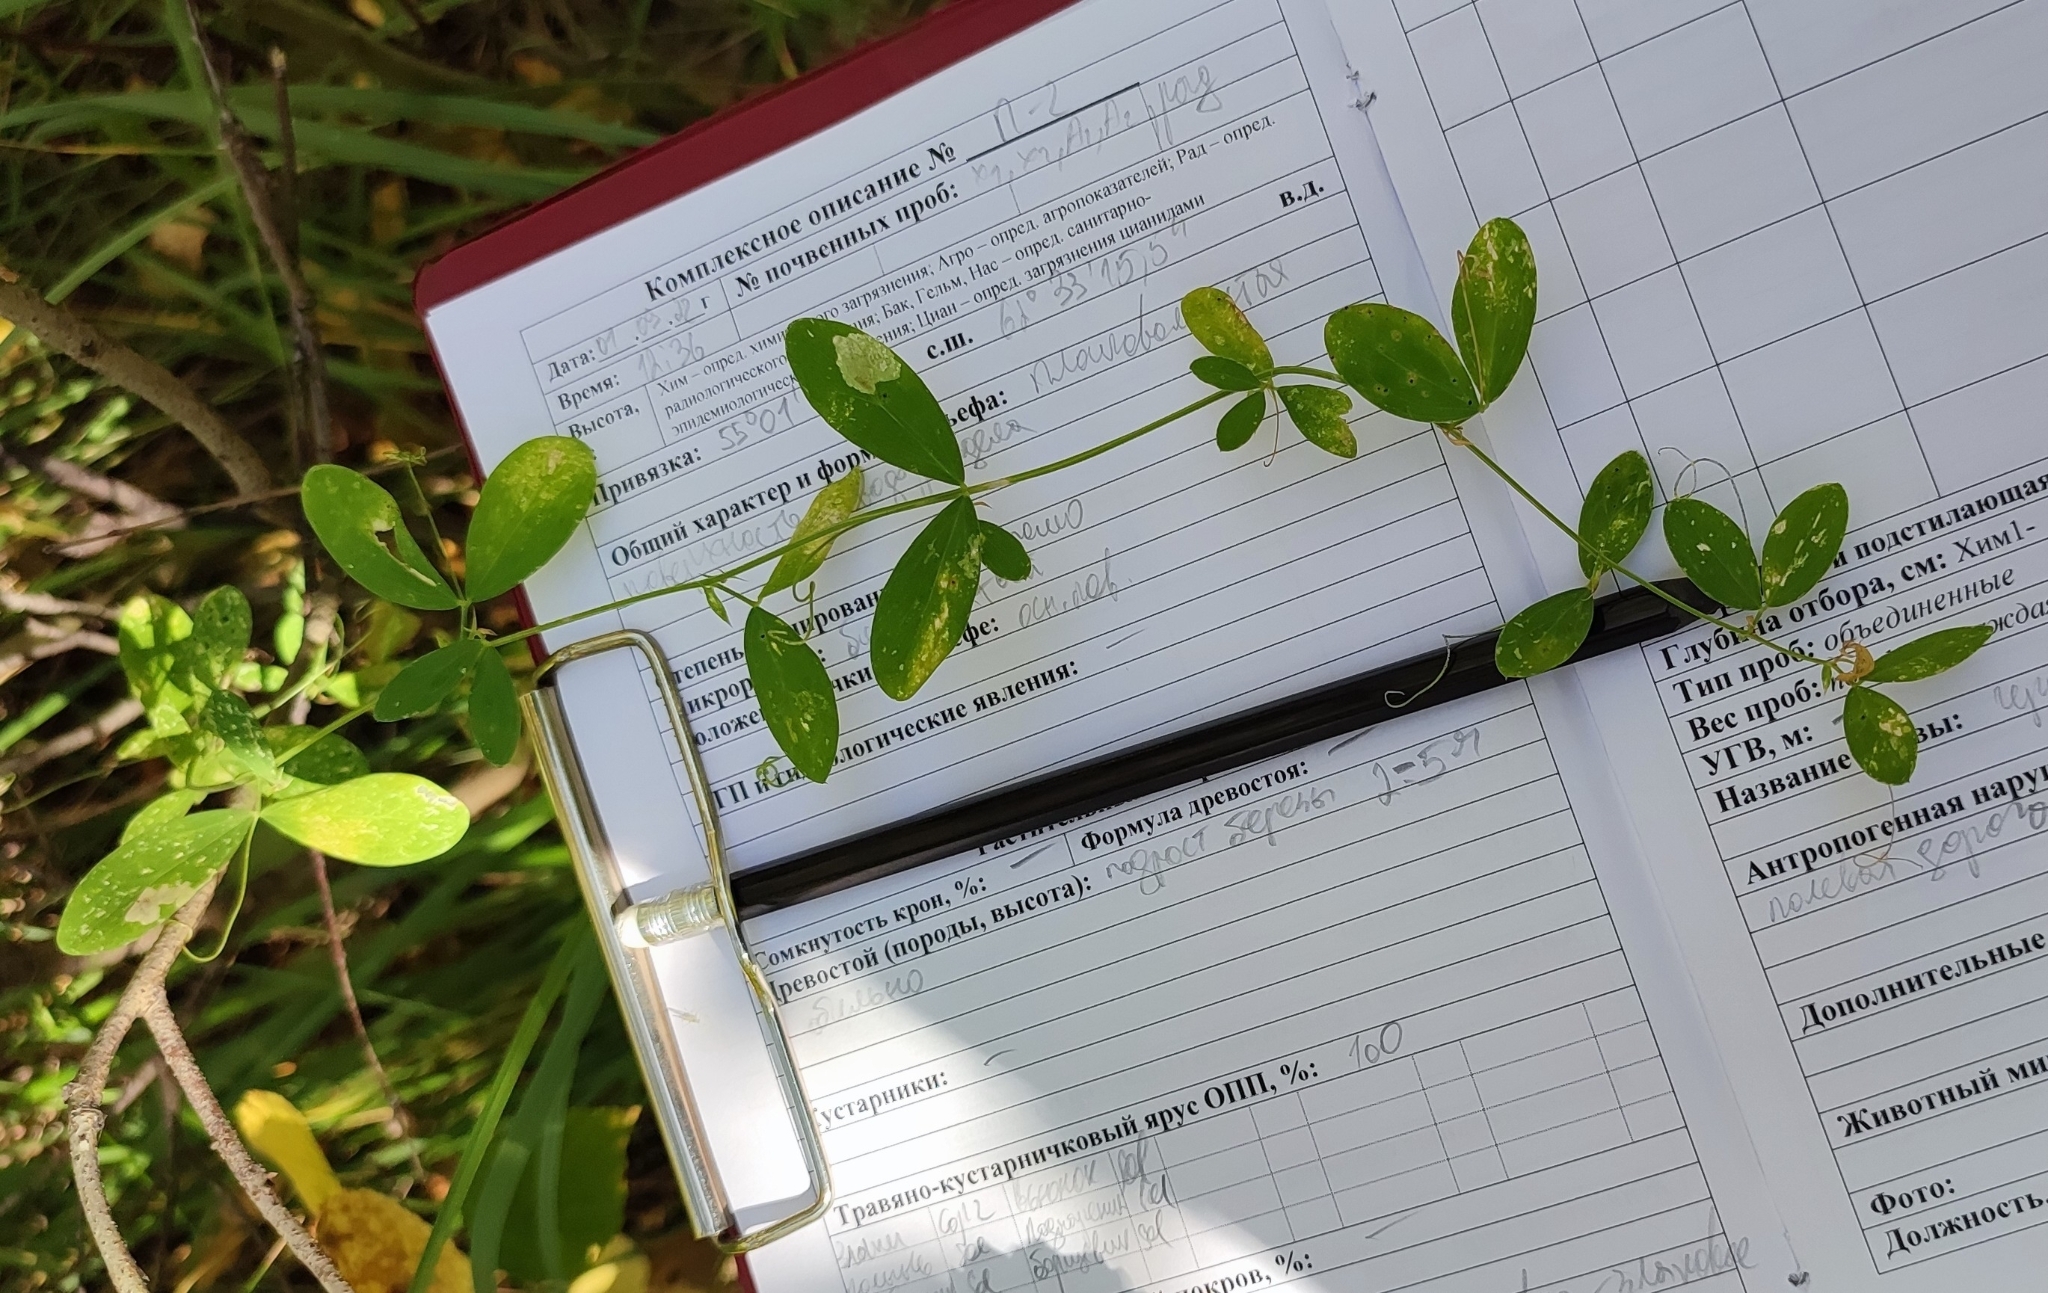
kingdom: Plantae
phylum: Tracheophyta
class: Magnoliopsida
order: Fabales
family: Fabaceae
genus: Lathyrus
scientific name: Lathyrus tuberosus
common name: Tuberous pea
